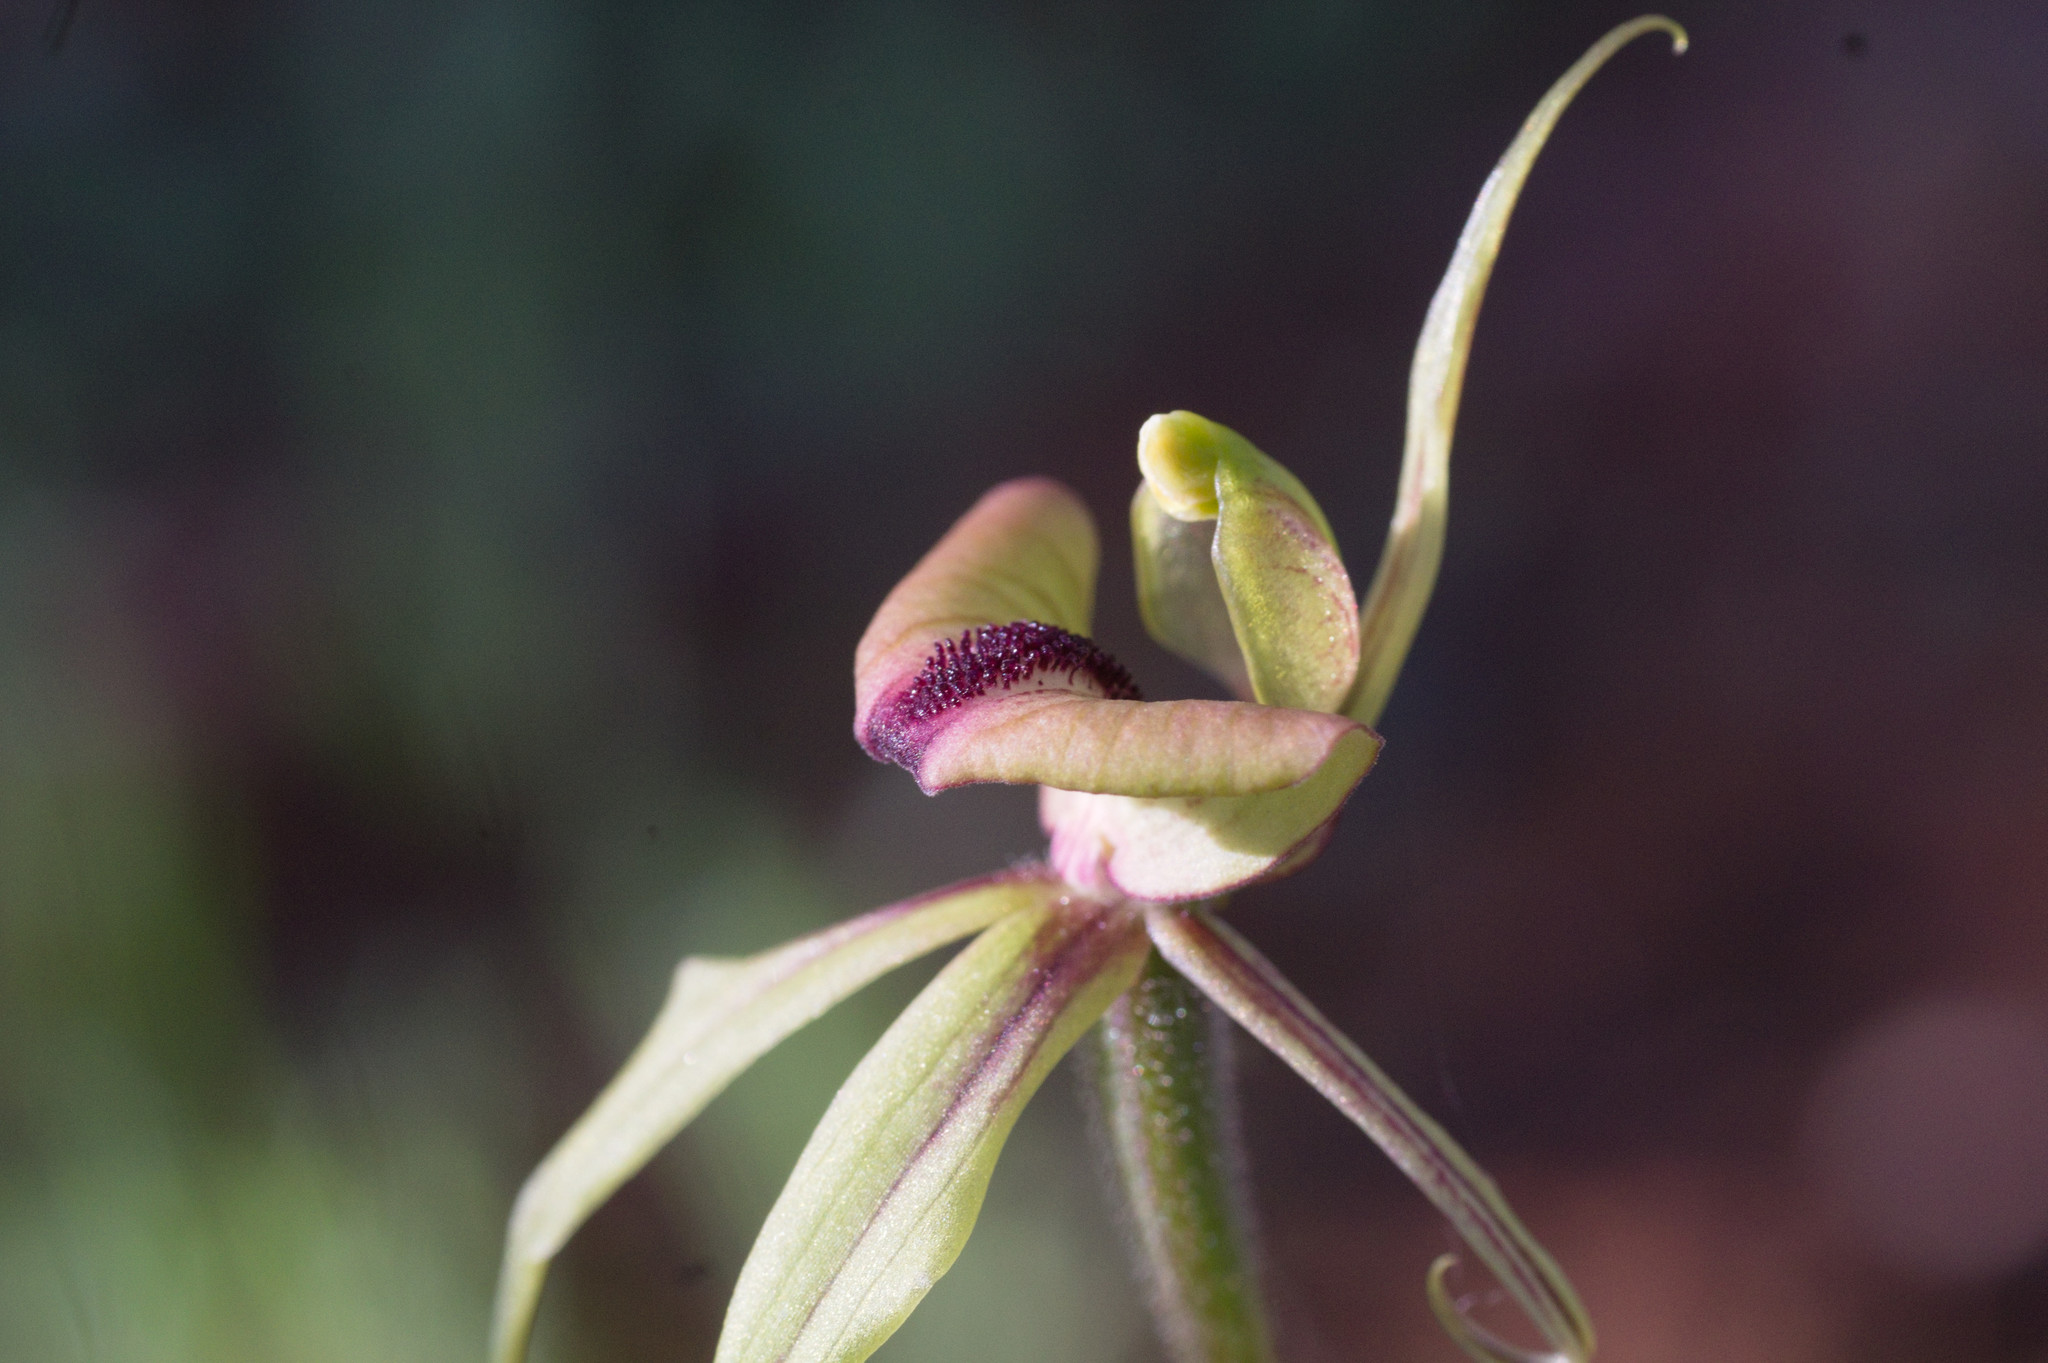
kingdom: Plantae
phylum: Tracheophyta
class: Liliopsida
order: Asparagales
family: Orchidaceae
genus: Caladenia
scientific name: Caladenia doutchiae
